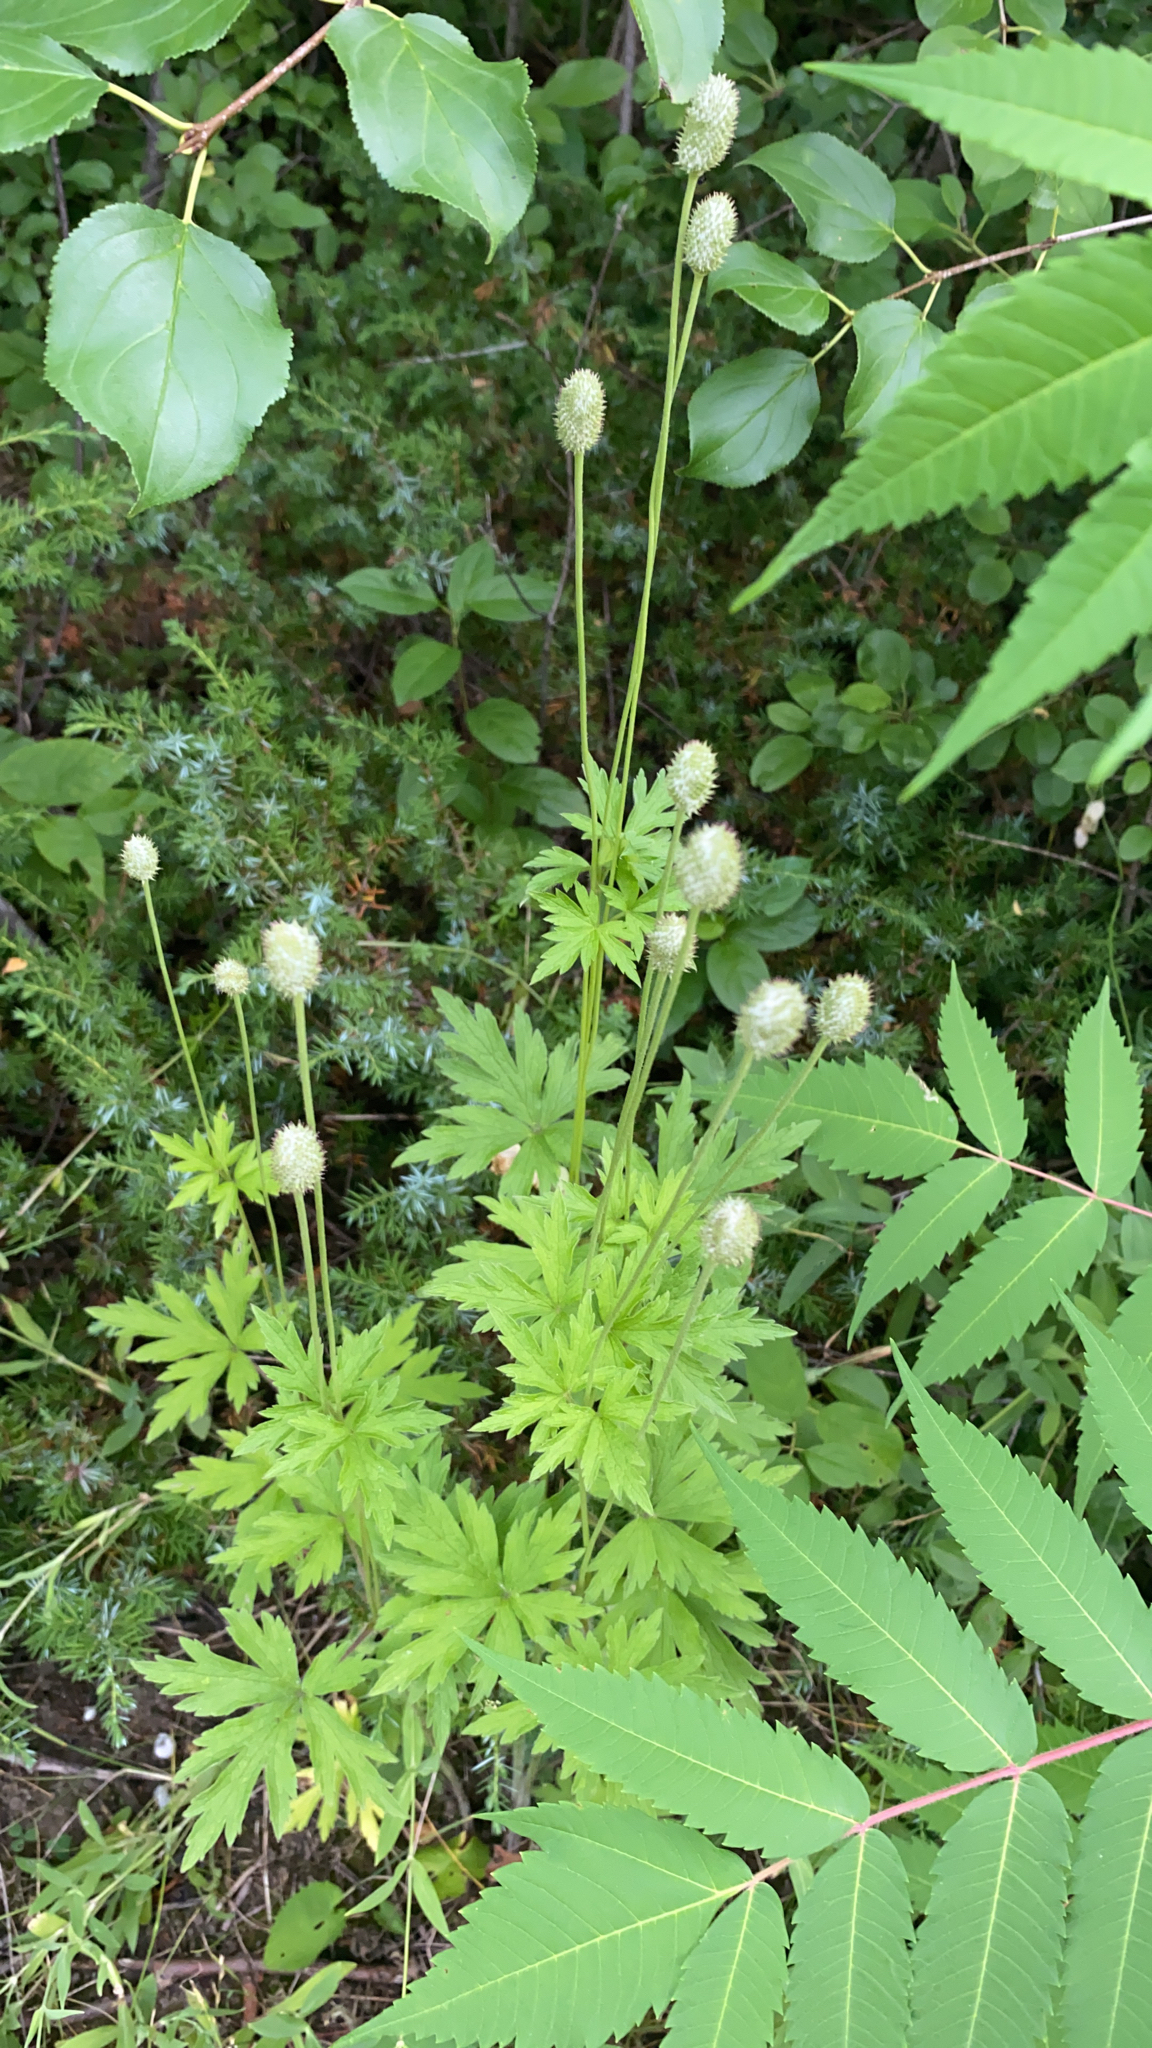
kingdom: Plantae
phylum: Tracheophyta
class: Magnoliopsida
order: Ranunculales
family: Ranunculaceae
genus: Anemone
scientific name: Anemone virginiana
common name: Tall anemone
